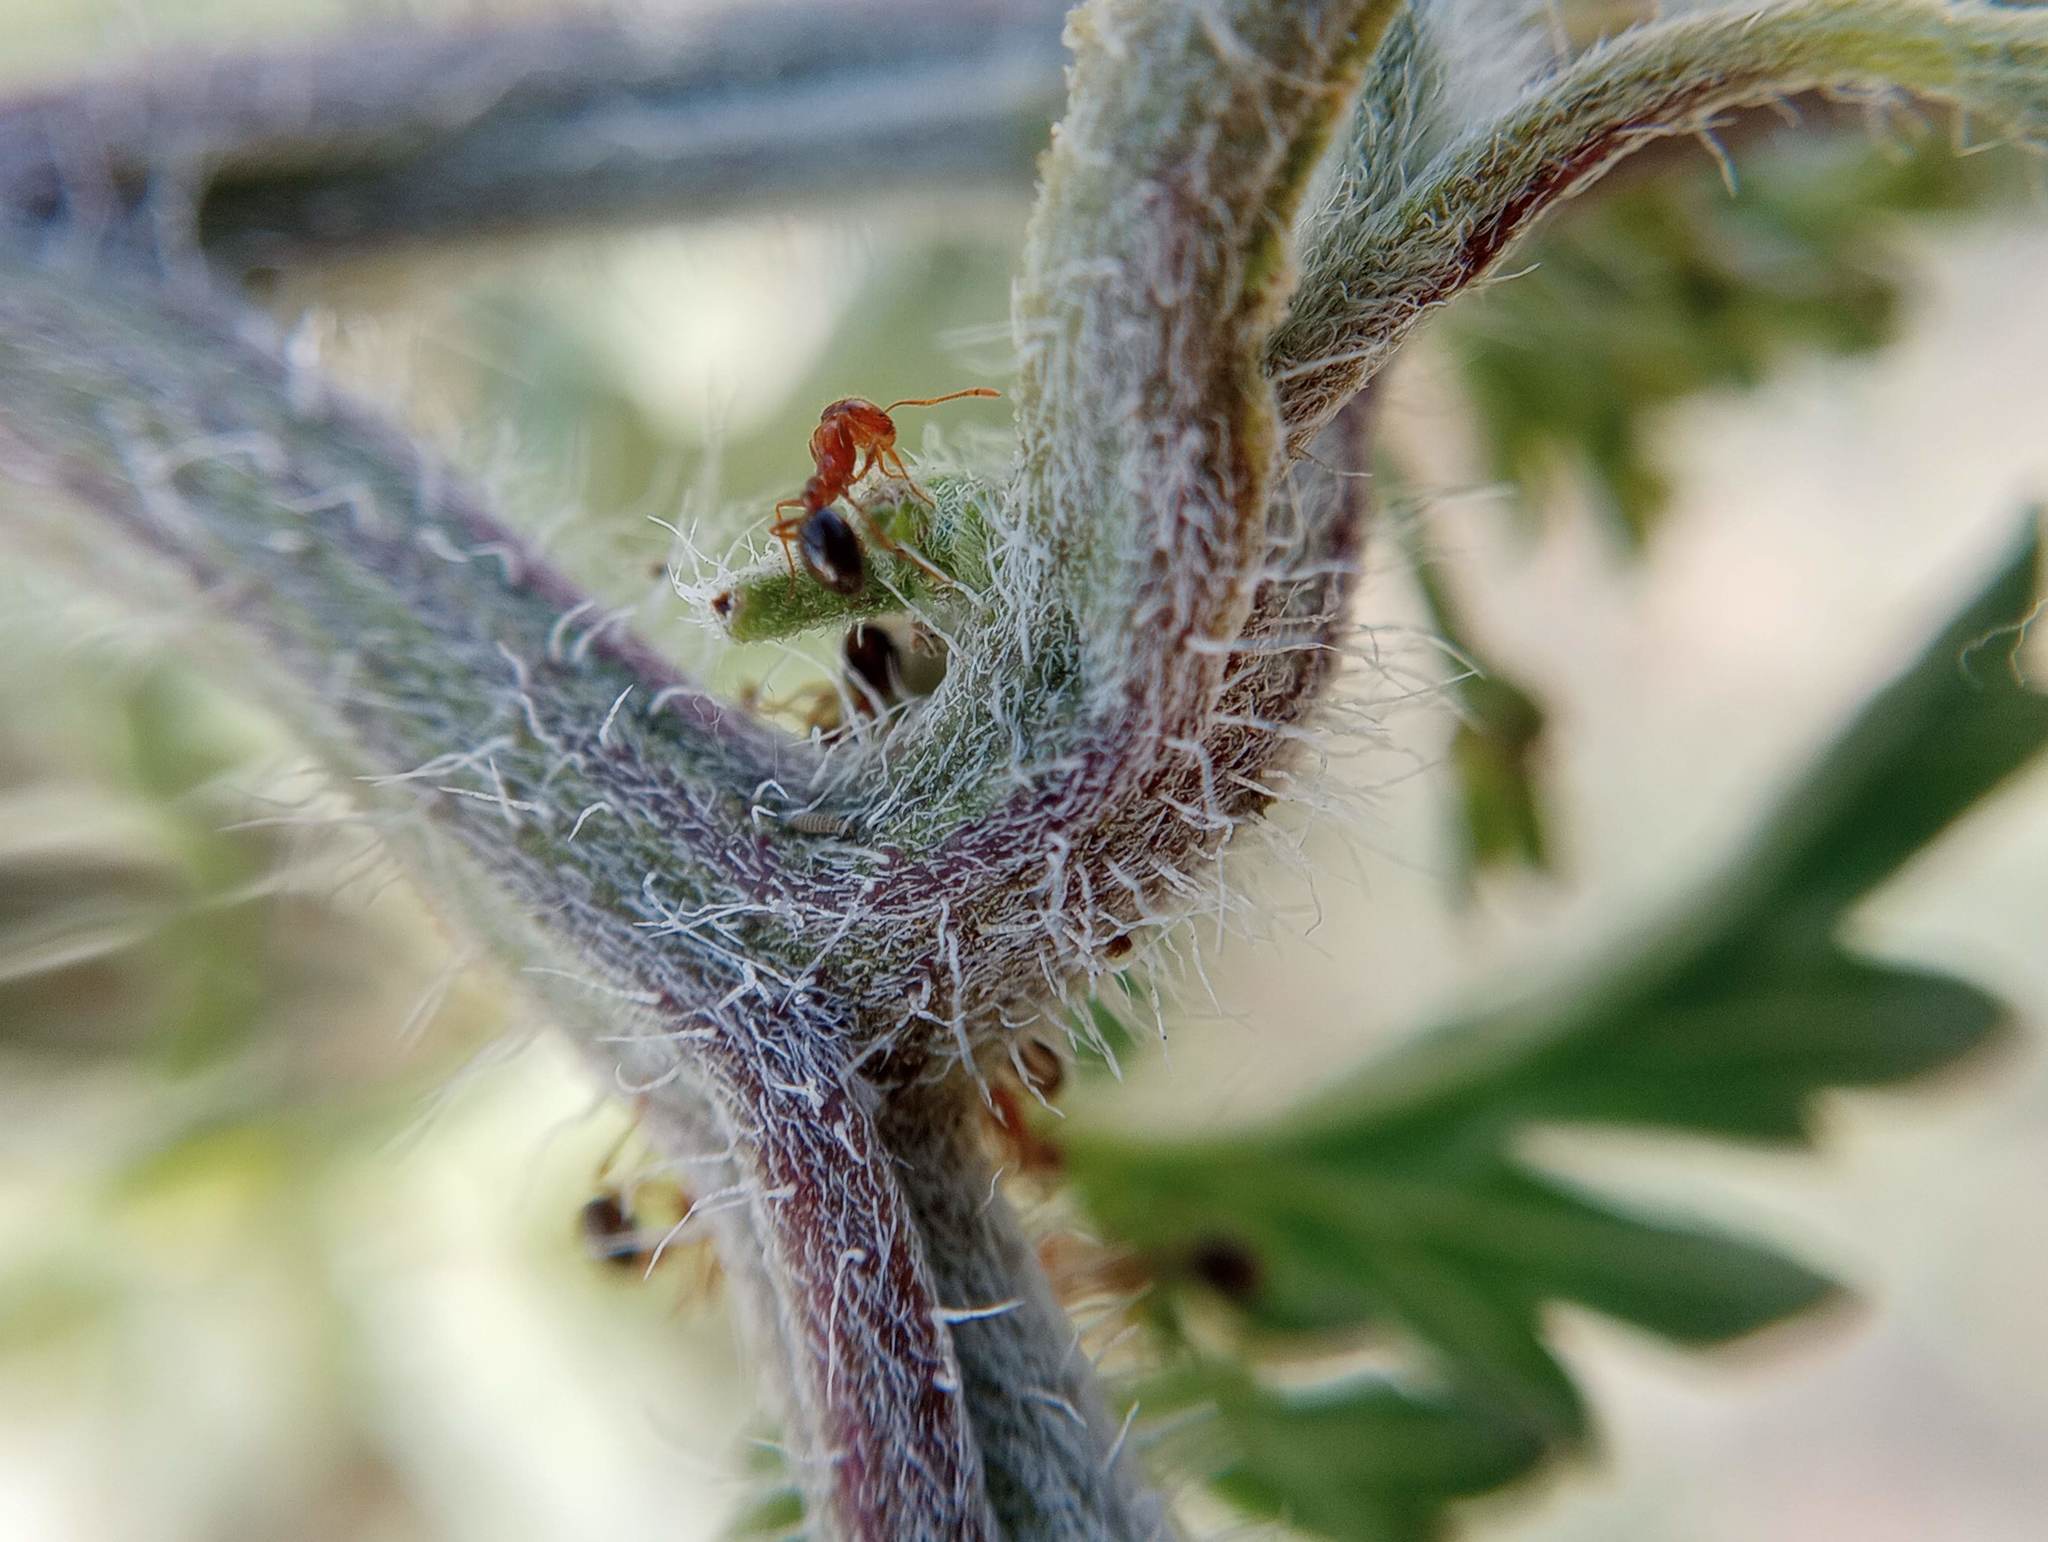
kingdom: Animalia
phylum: Arthropoda
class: Insecta
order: Hymenoptera
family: Formicidae
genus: Solenopsis
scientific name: Solenopsis xyloni
